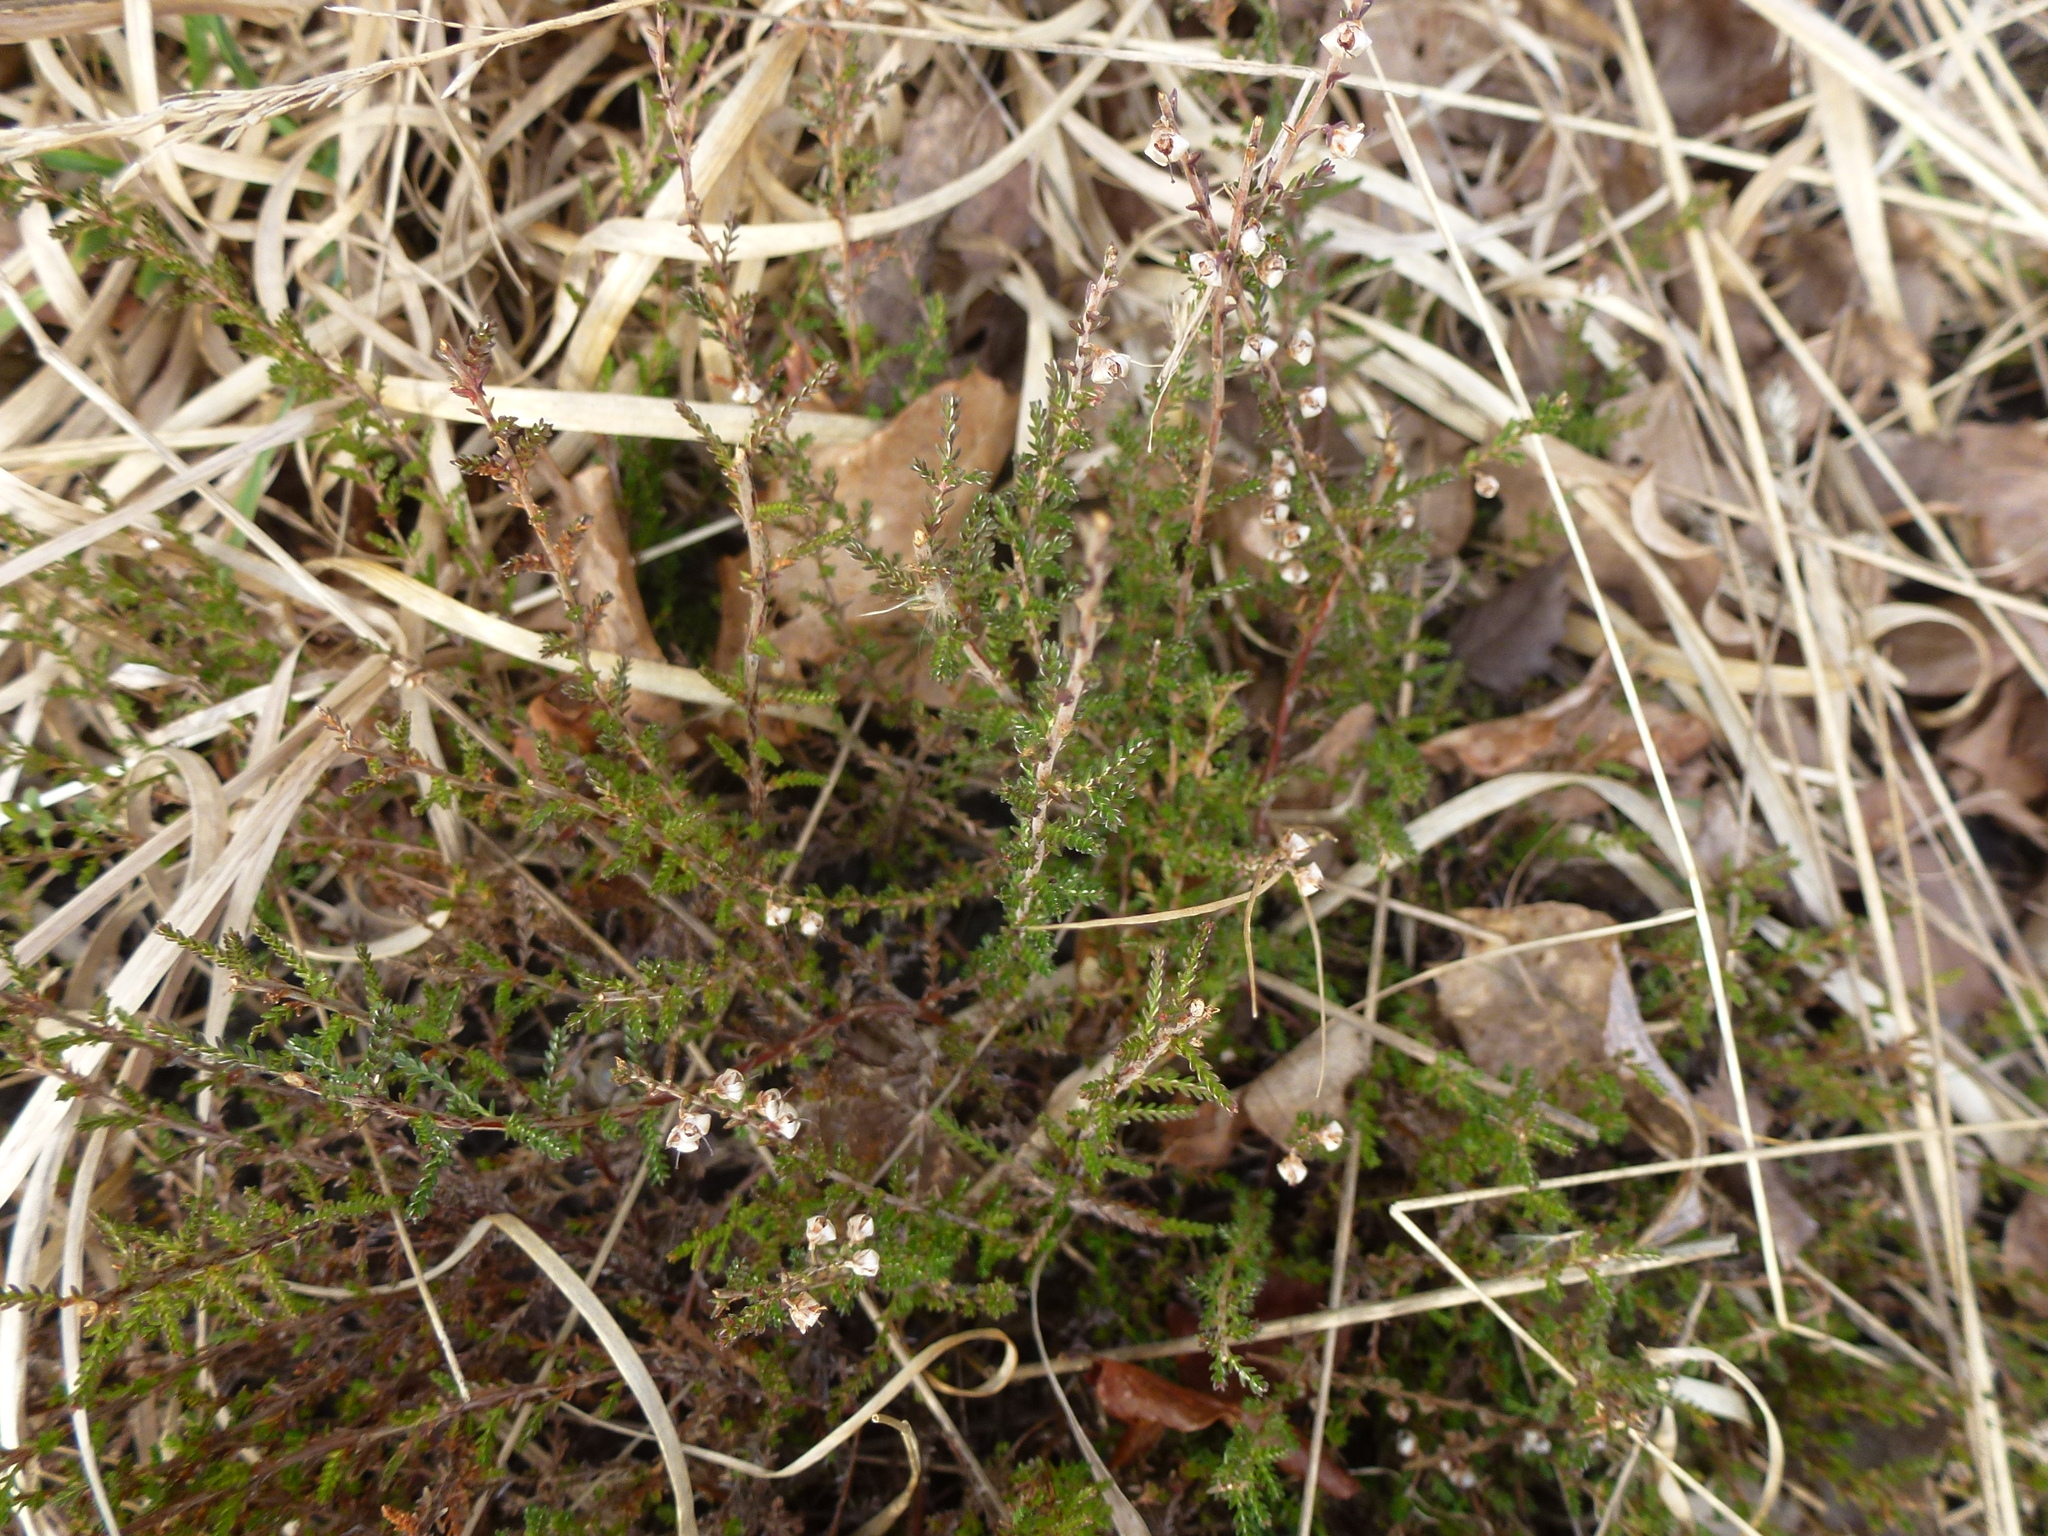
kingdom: Plantae
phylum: Tracheophyta
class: Magnoliopsida
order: Ericales
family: Ericaceae
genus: Calluna
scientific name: Calluna vulgaris
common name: Heather
